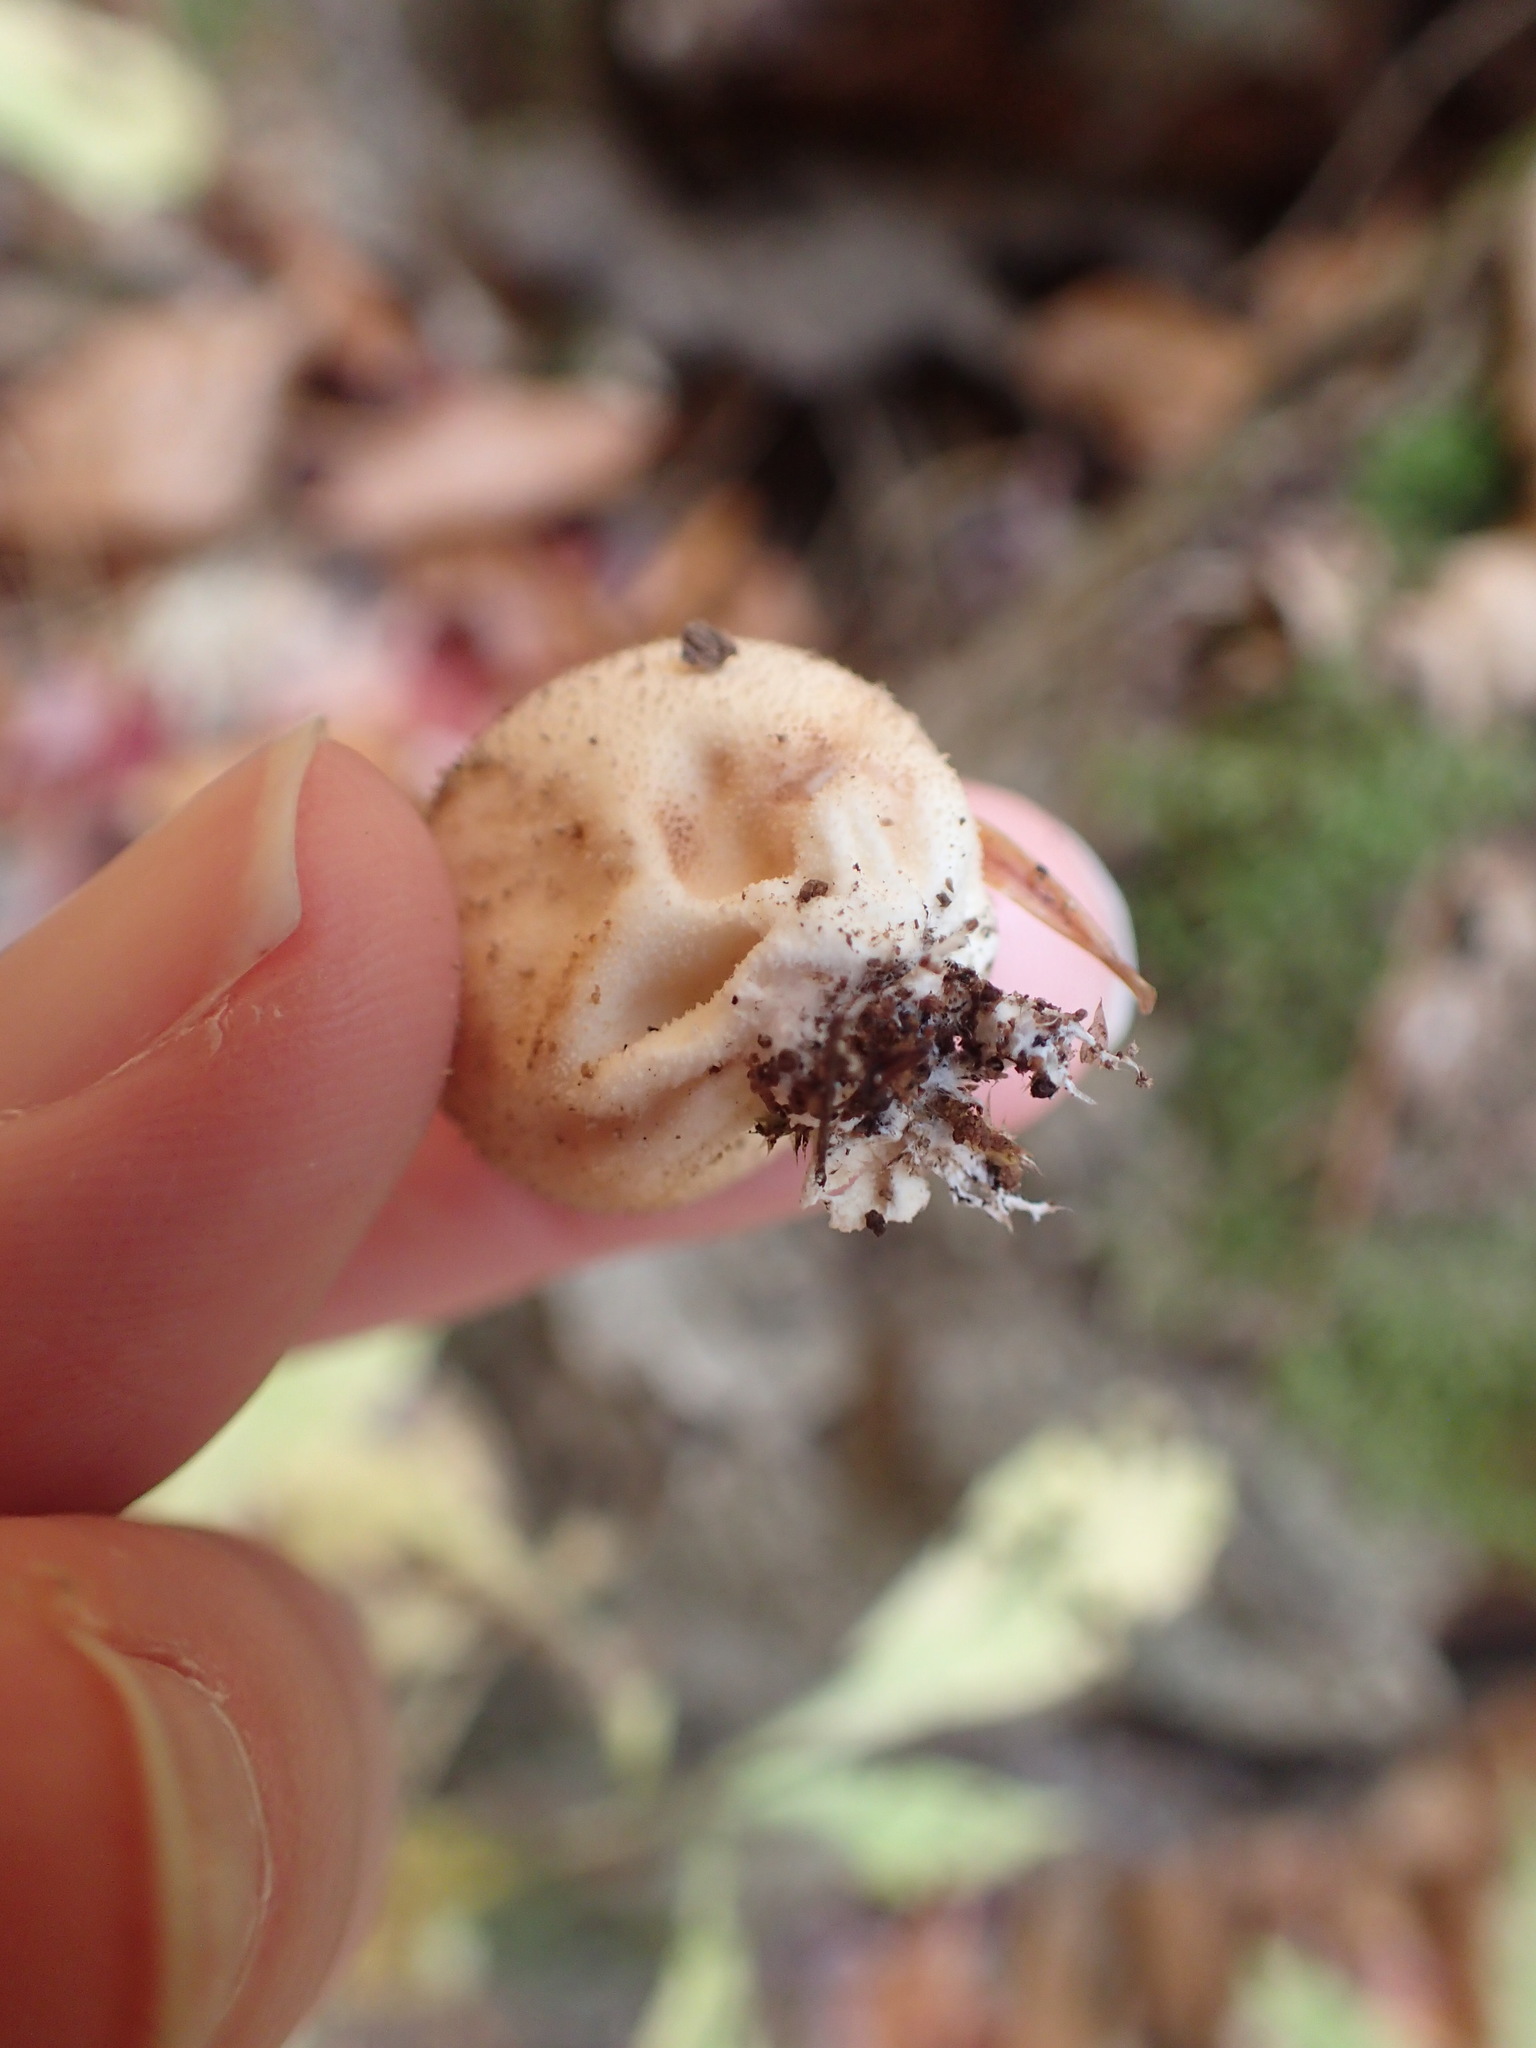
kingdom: Fungi
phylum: Basidiomycota
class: Agaricomycetes
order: Agaricales
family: Lycoperdaceae
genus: Lycoperdon
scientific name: Lycoperdon perlatum
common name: Common puffball
